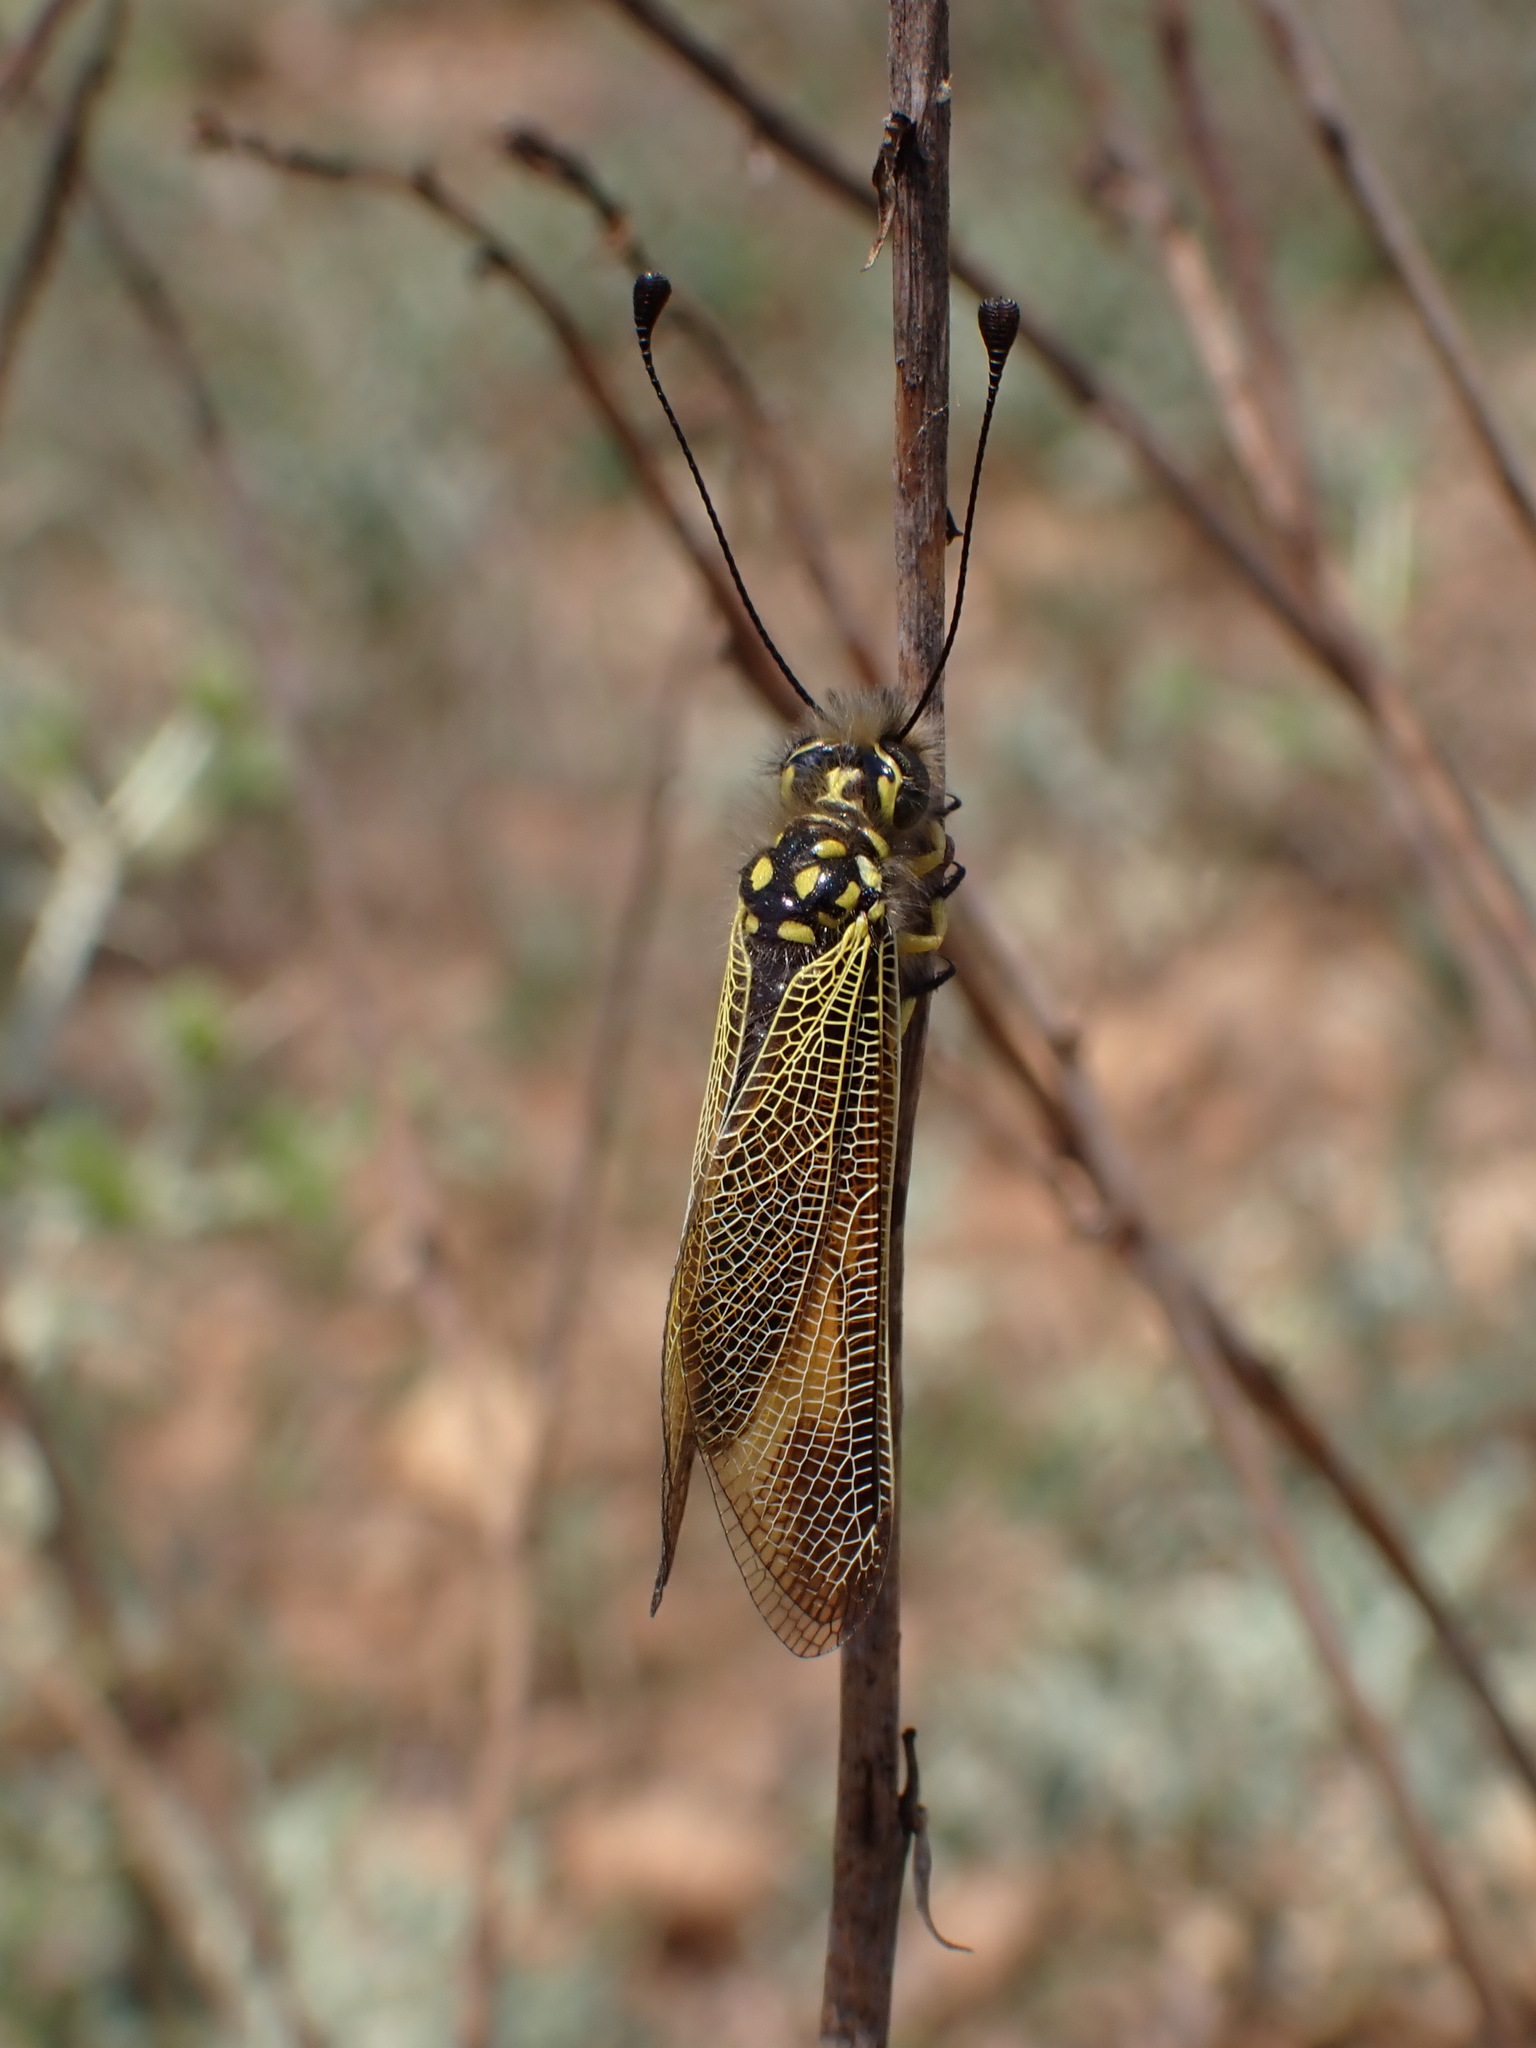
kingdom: Animalia
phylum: Arthropoda
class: Insecta
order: Neuroptera
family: Ascalaphidae
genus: Libelloides
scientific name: Libelloides ictericus
